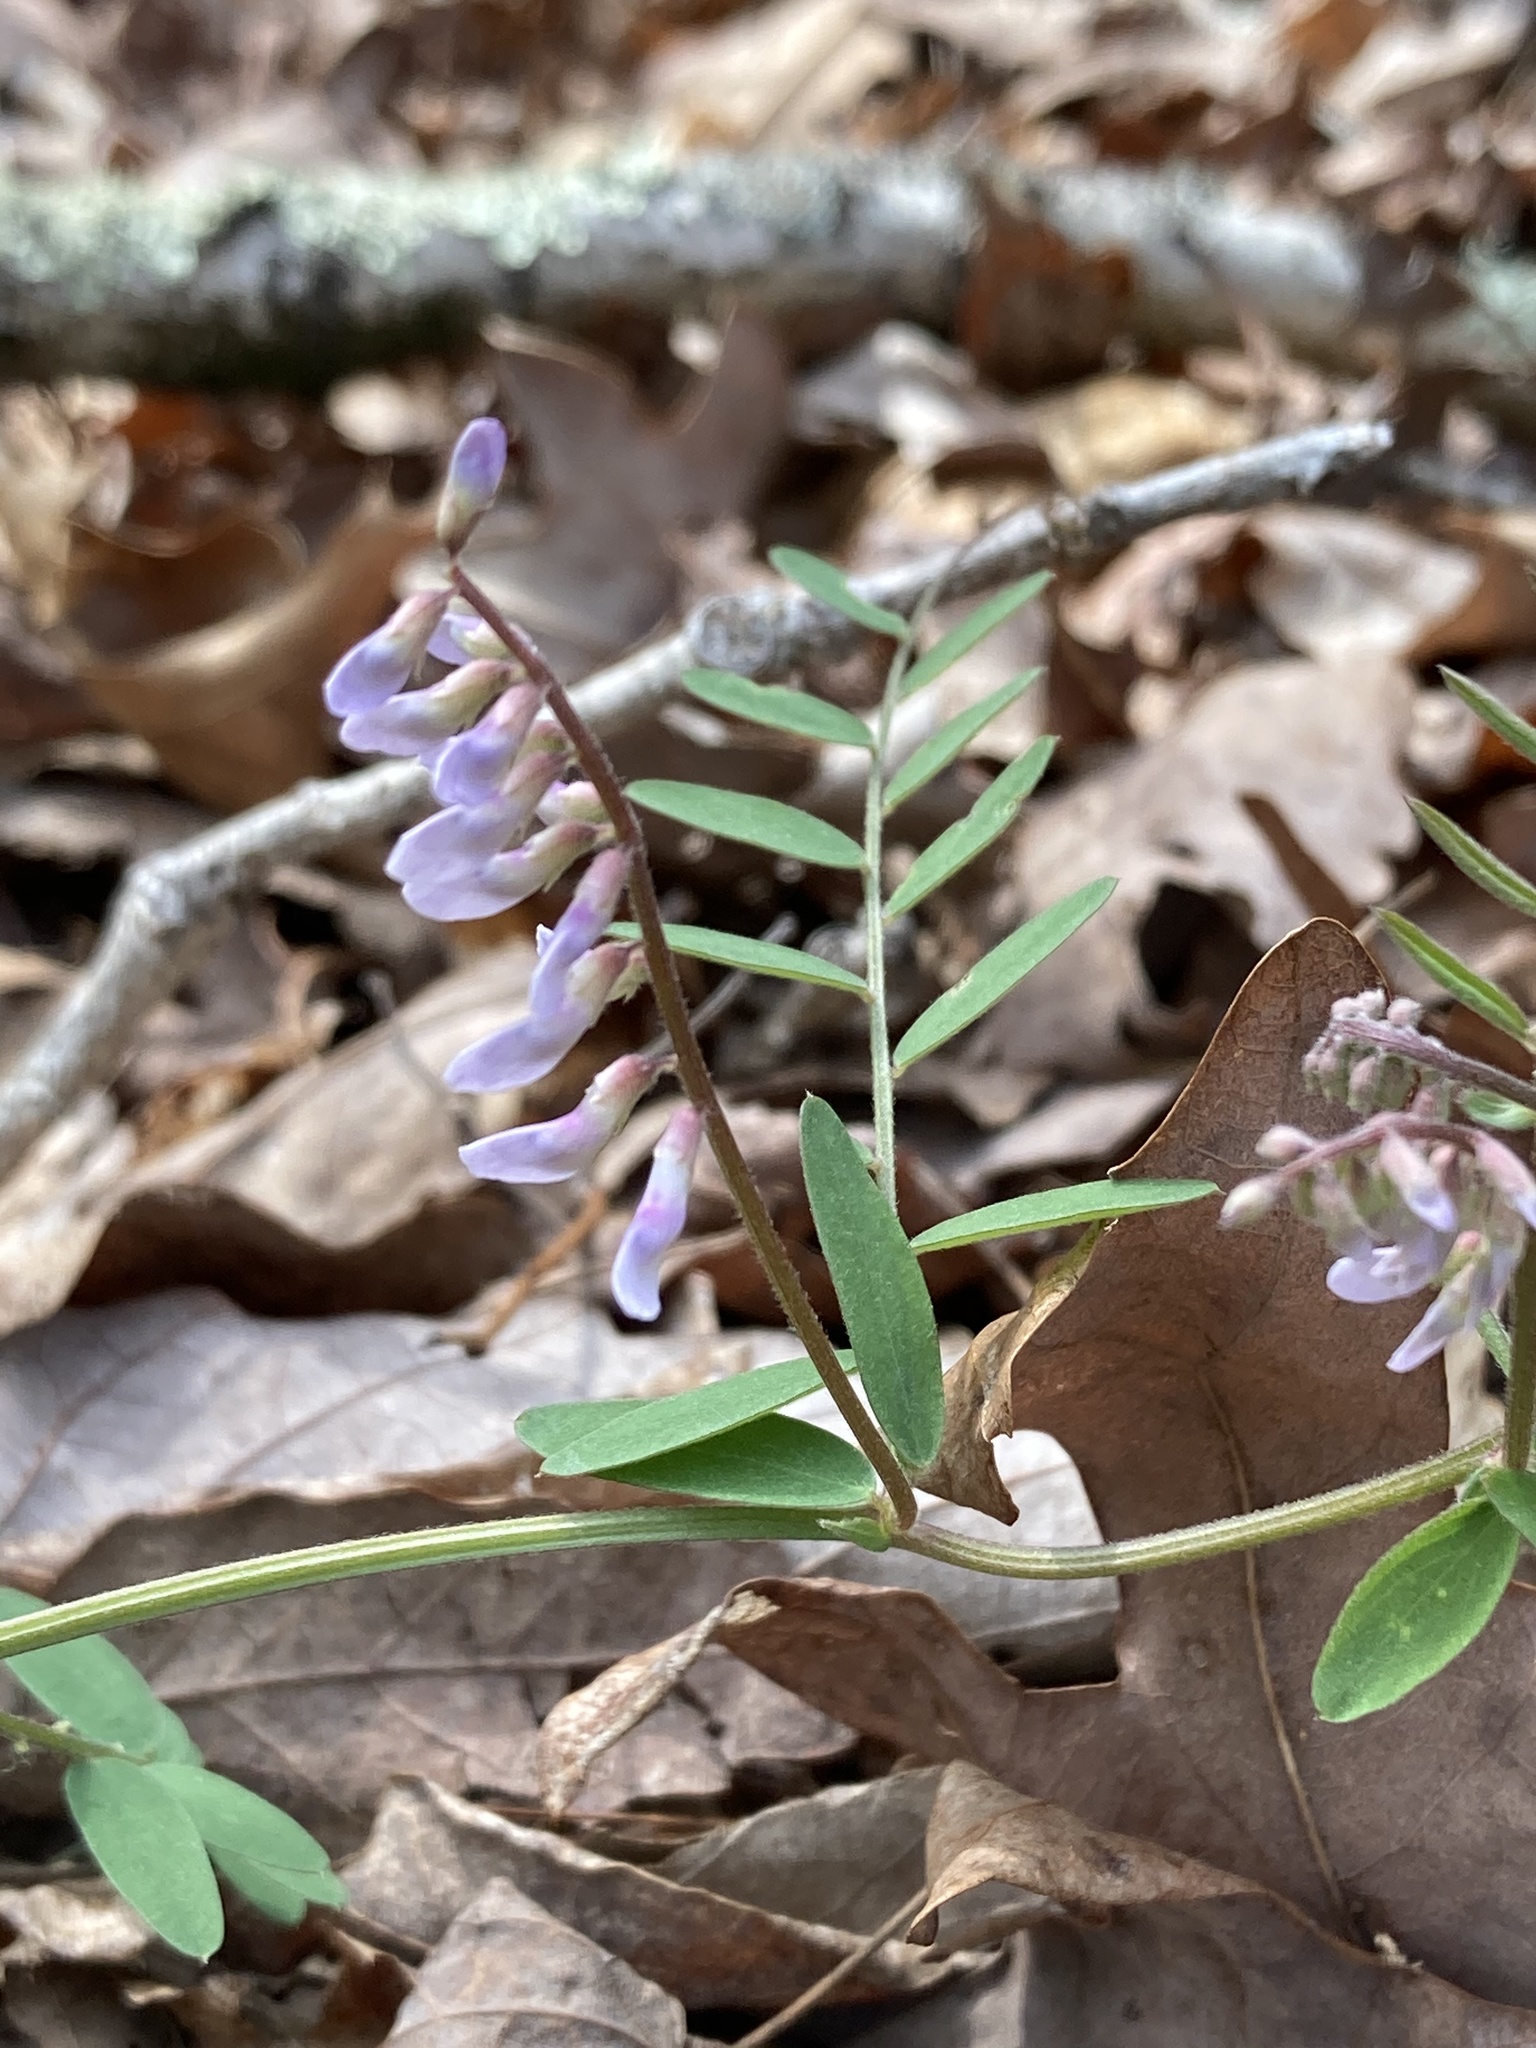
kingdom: Plantae
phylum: Tracheophyta
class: Magnoliopsida
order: Fabales
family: Fabaceae
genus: Vicia
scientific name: Vicia caroliniana
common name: Carolina vetch
